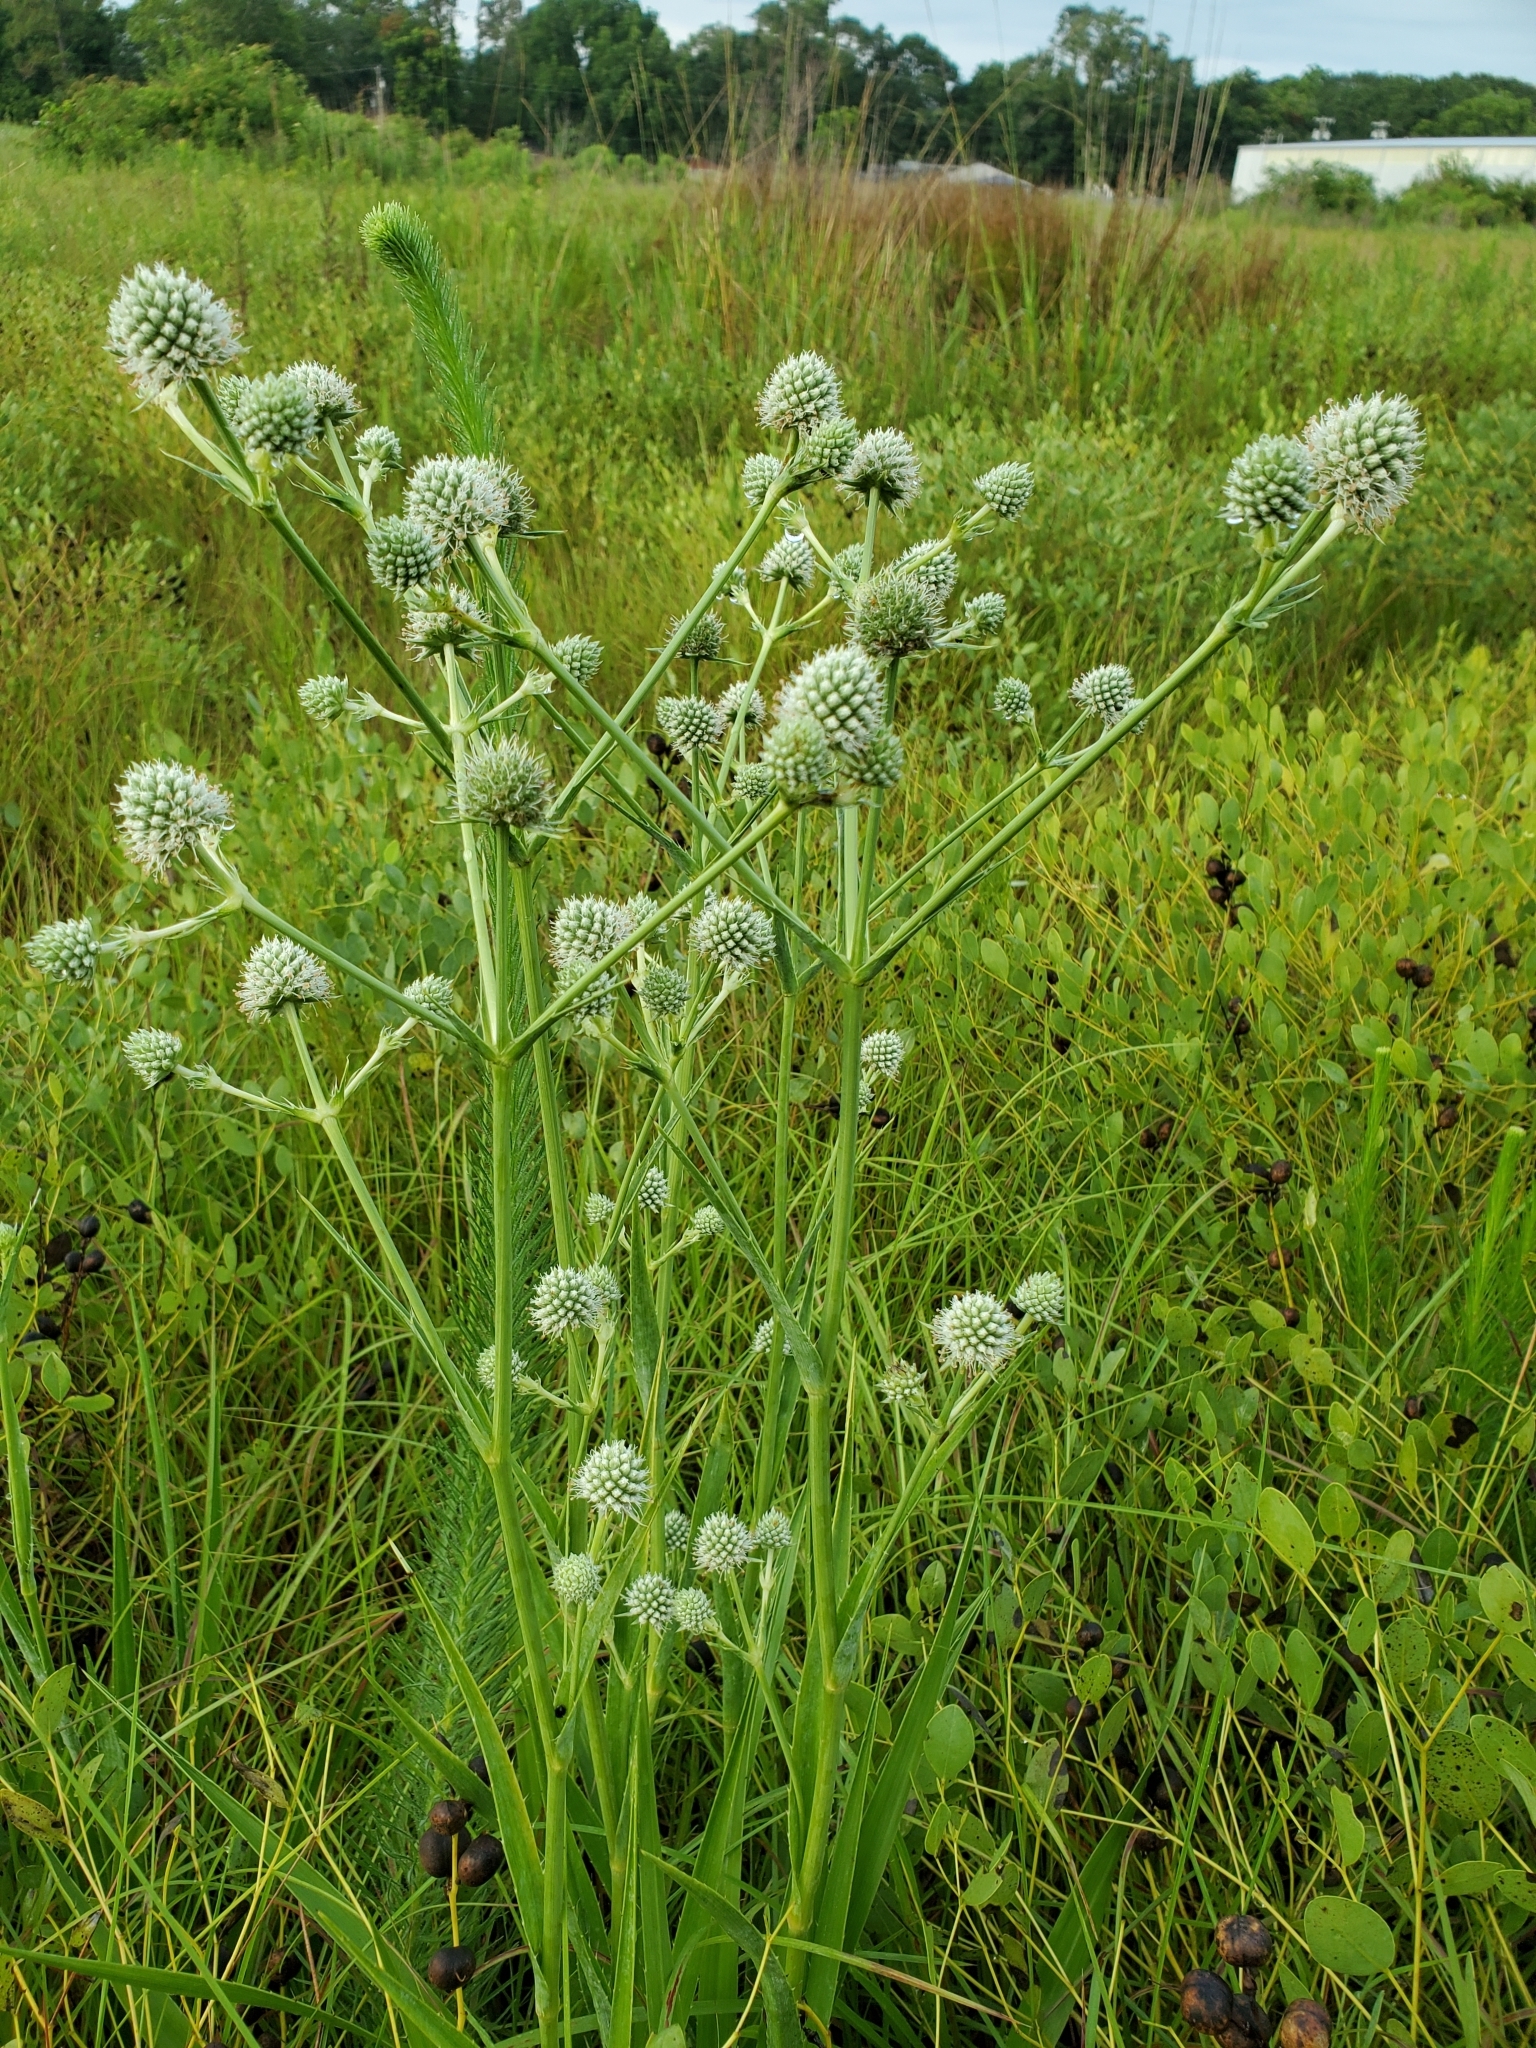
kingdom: Plantae
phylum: Tracheophyta
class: Magnoliopsida
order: Apiales
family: Apiaceae
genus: Eryngium
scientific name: Eryngium yuccifolium
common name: Button eryngo
